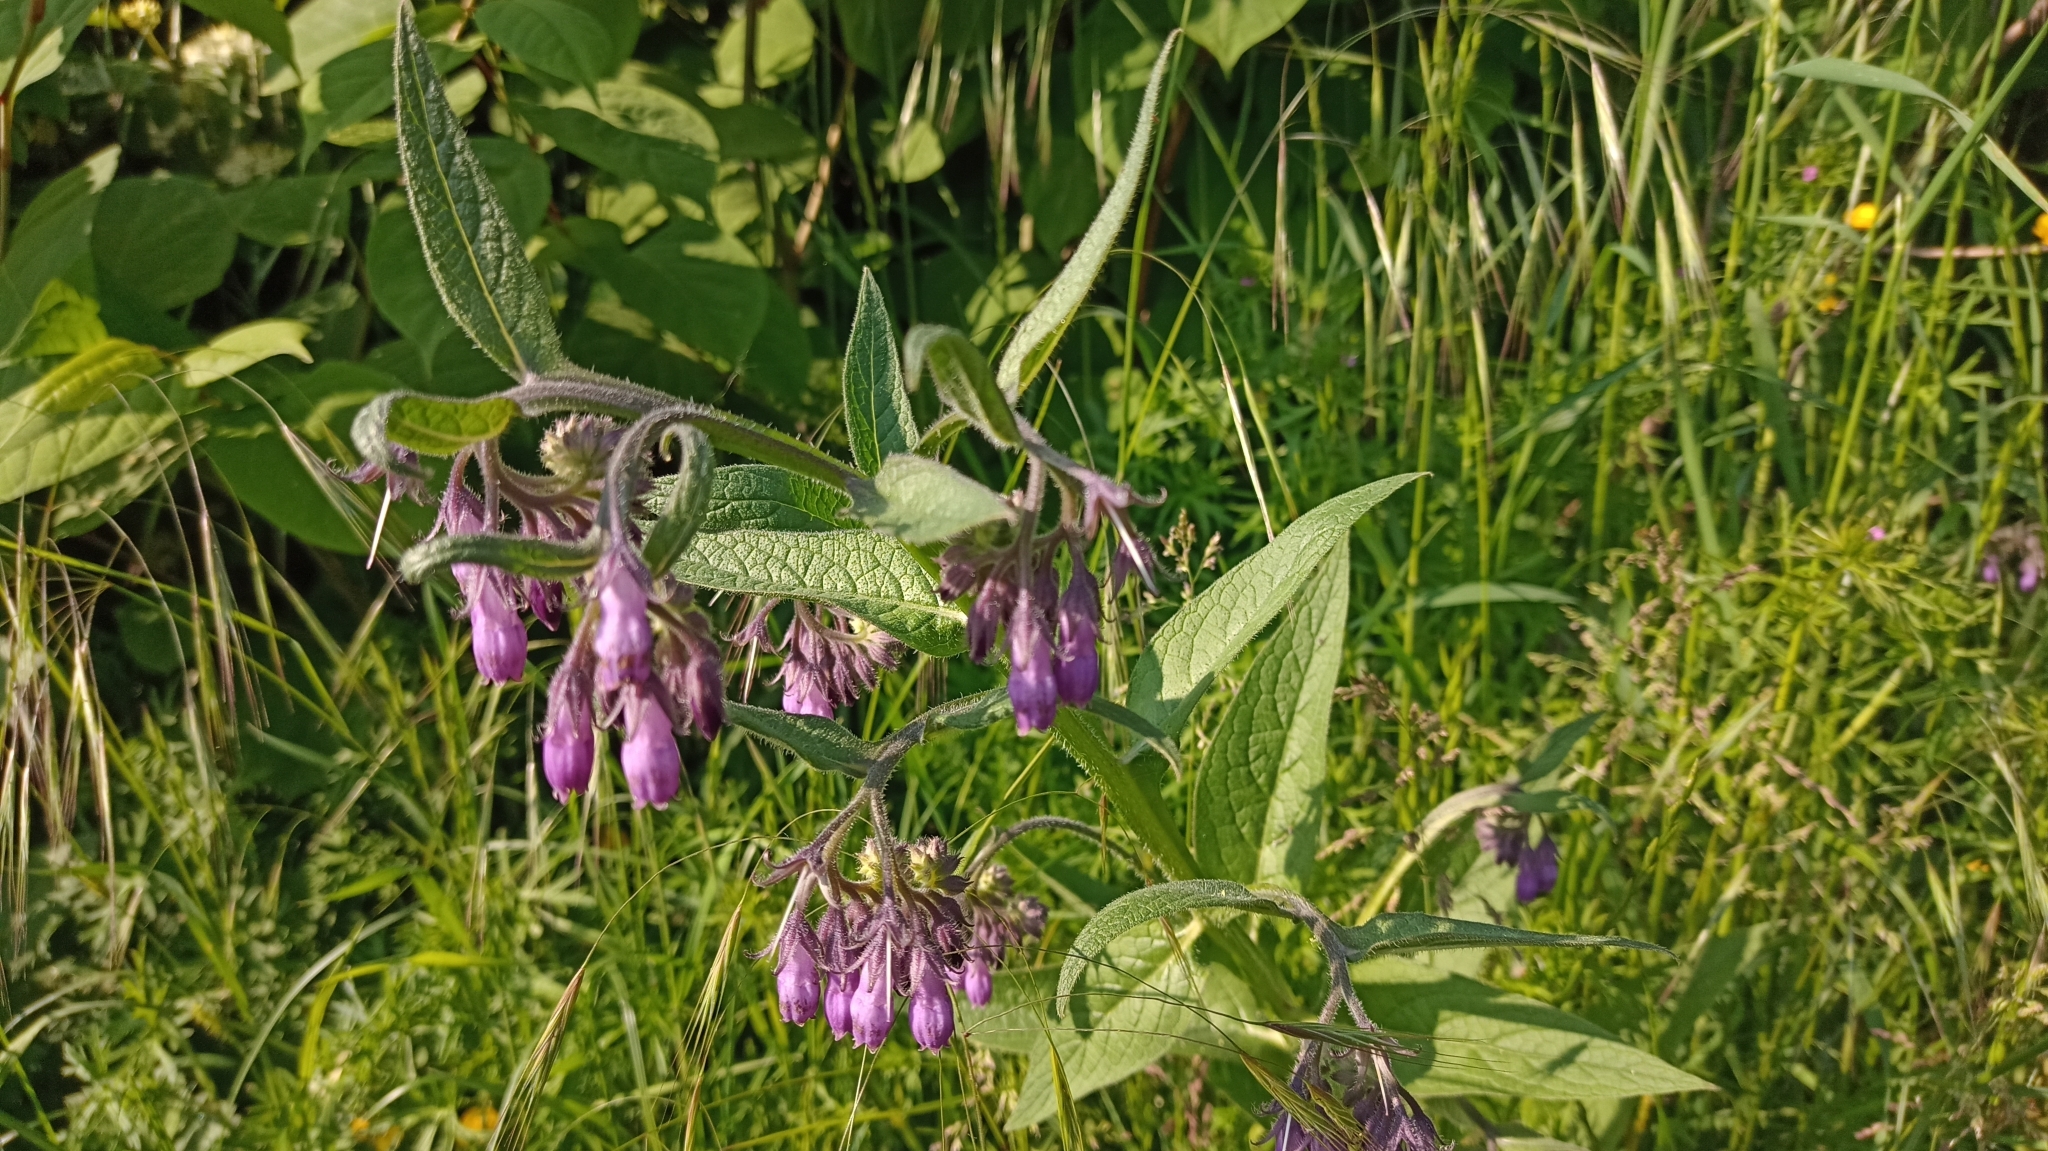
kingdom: Plantae
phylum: Tracheophyta
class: Magnoliopsida
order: Boraginales
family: Boraginaceae
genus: Symphytum
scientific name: Symphytum officinale
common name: Common comfrey
